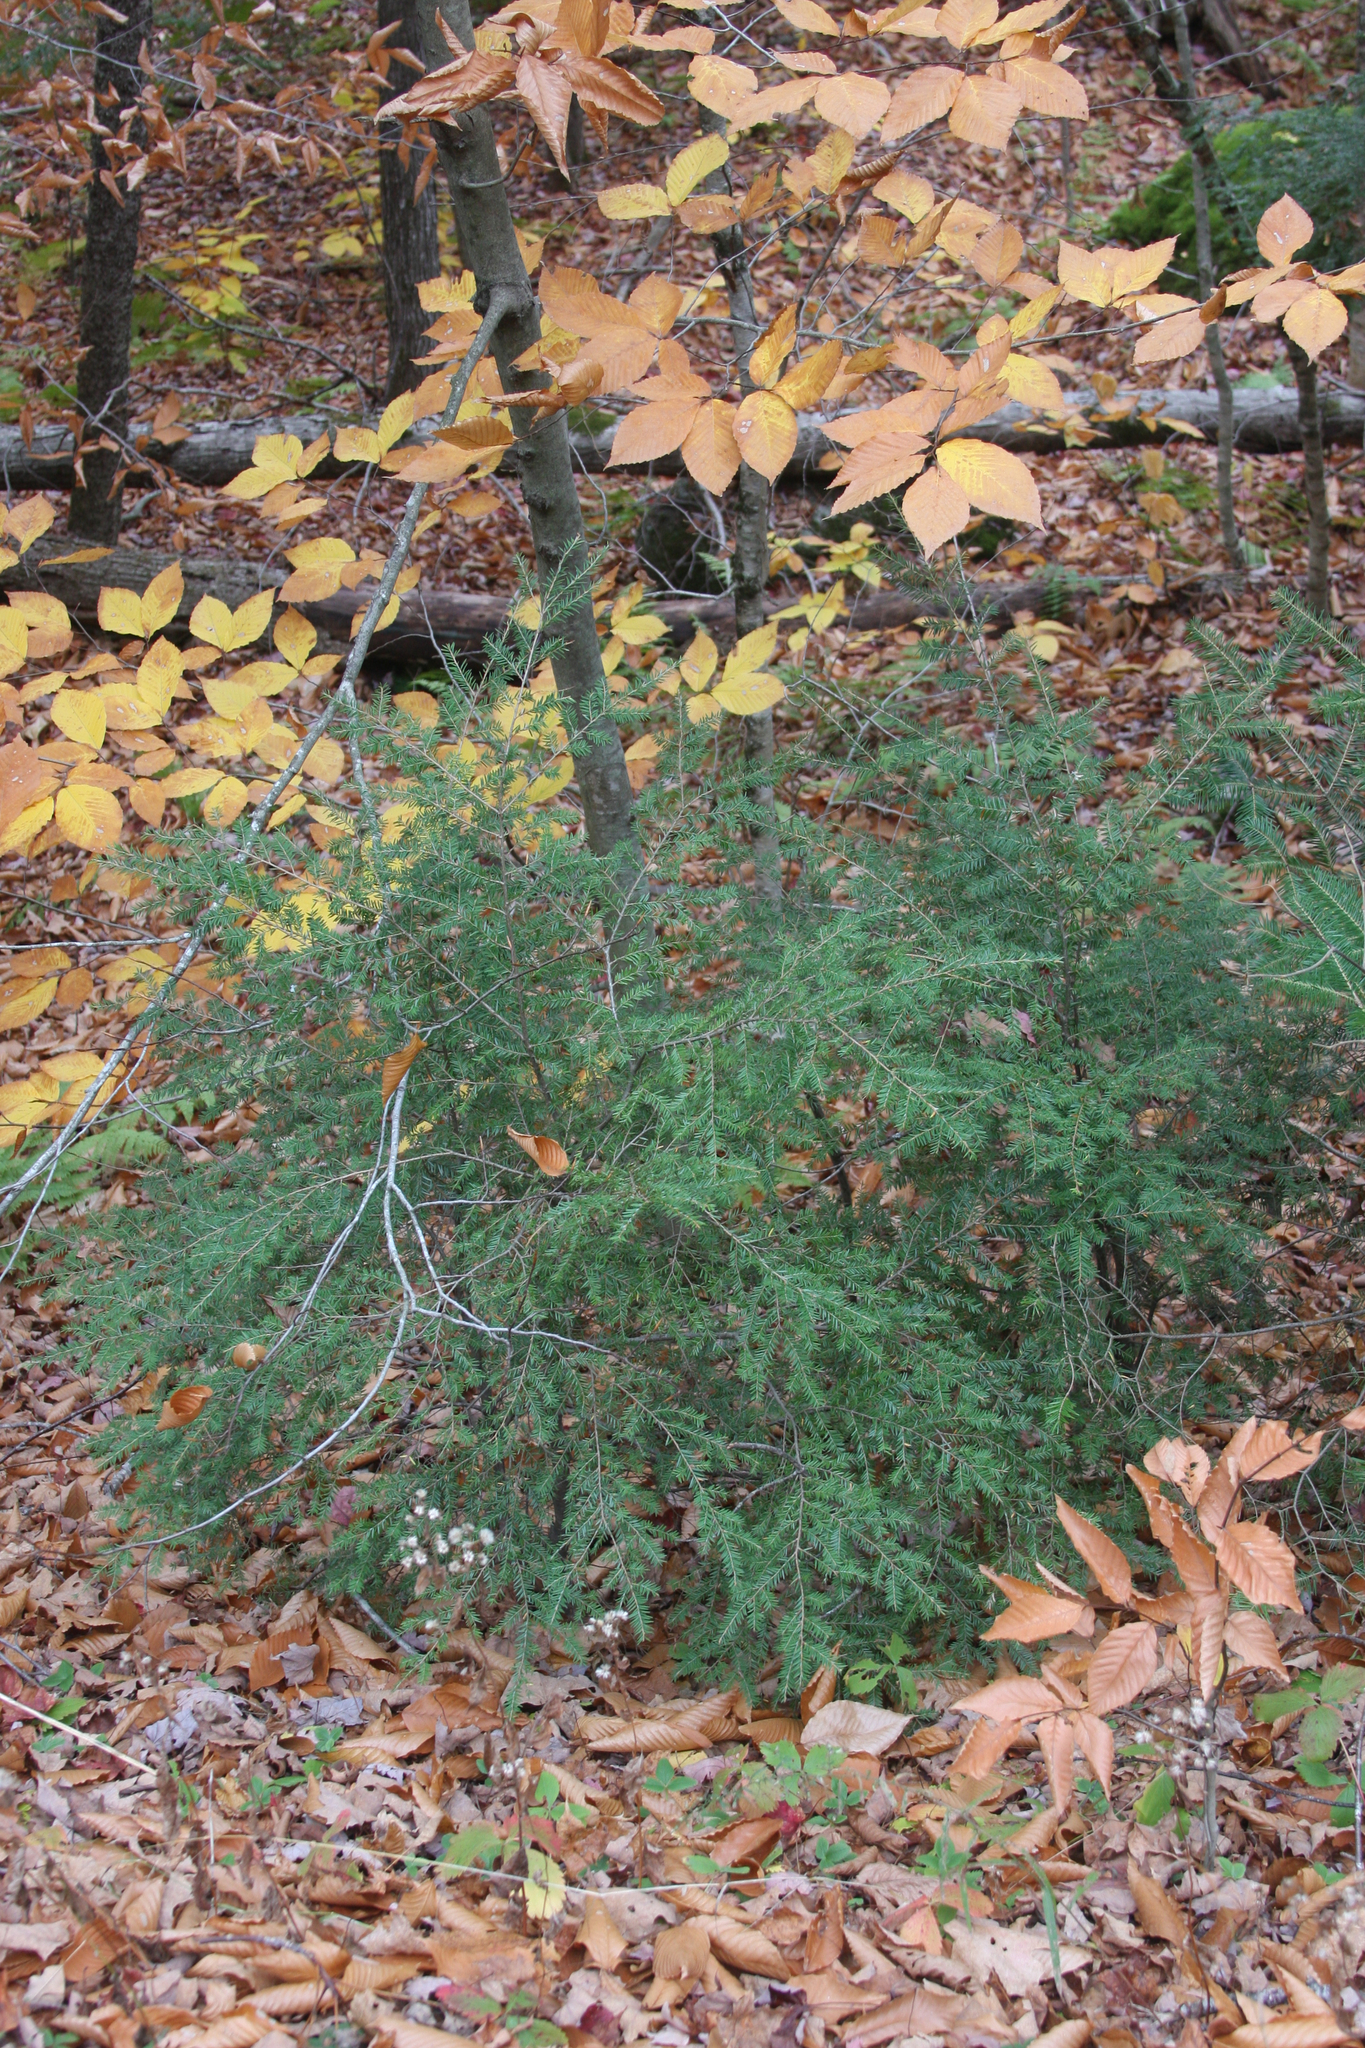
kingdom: Plantae
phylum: Tracheophyta
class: Pinopsida
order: Pinales
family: Pinaceae
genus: Tsuga
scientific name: Tsuga canadensis
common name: Eastern hemlock
